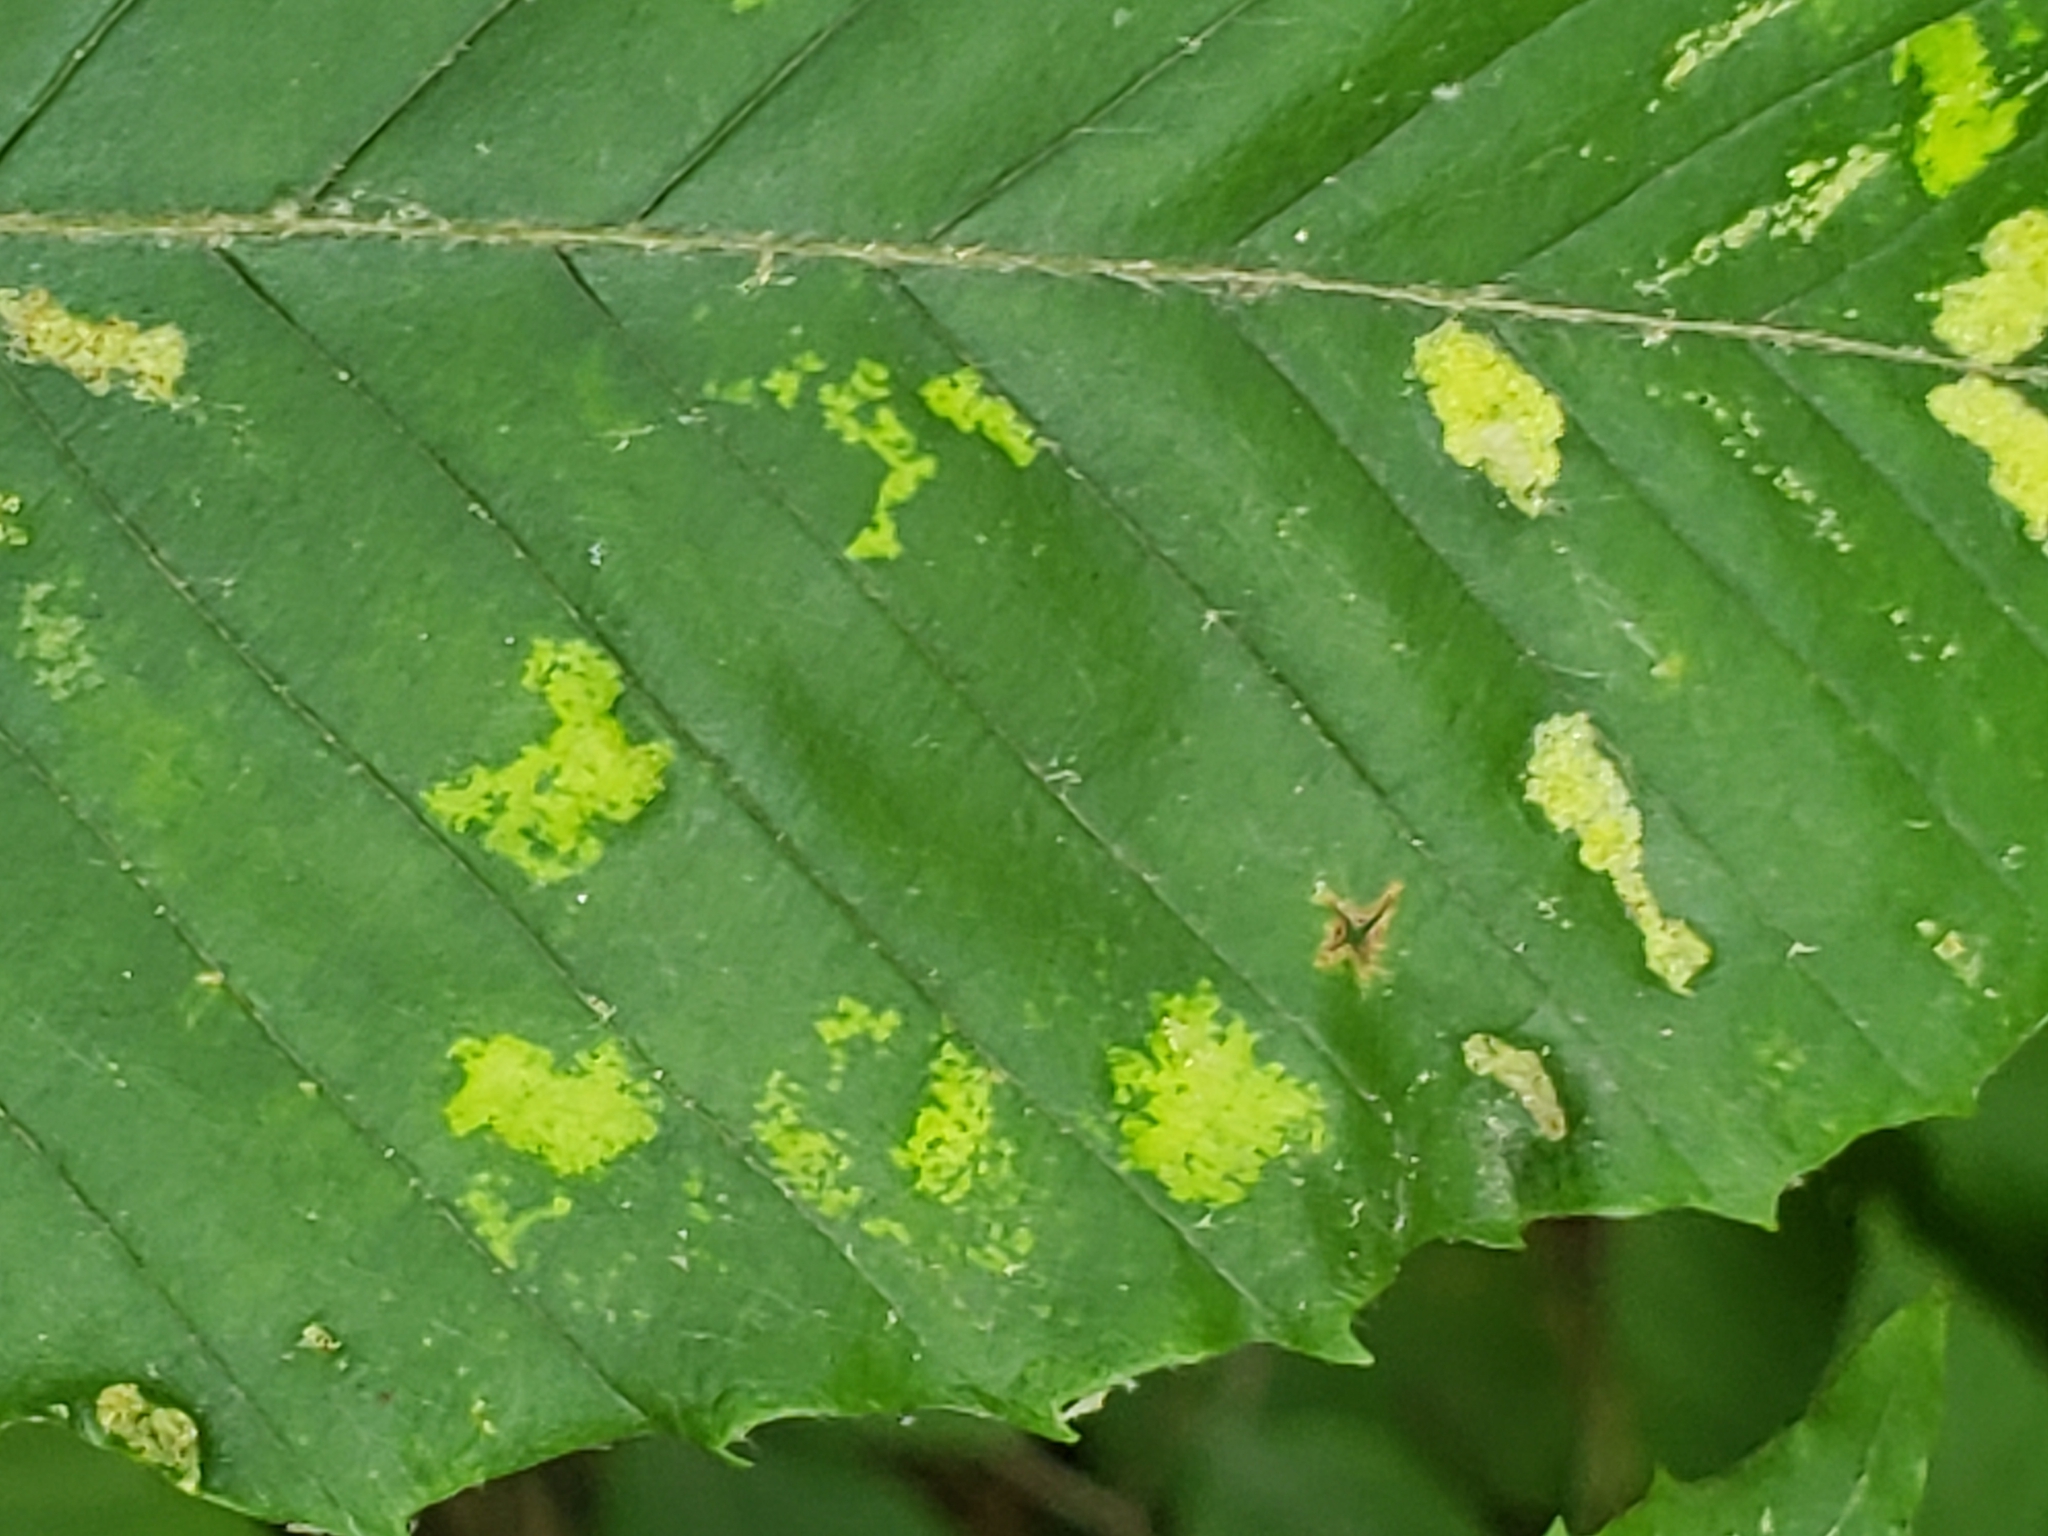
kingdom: Animalia
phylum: Arthropoda
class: Arachnida
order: Trombidiformes
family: Eriophyidae
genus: Acalitus
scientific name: Acalitus
